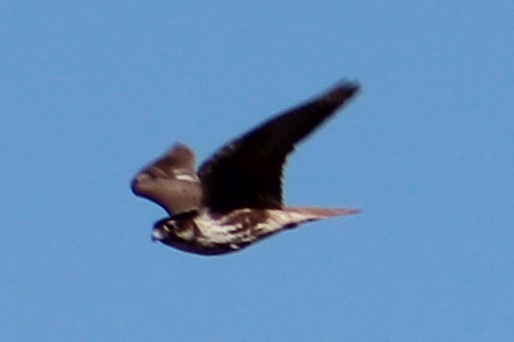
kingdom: Animalia
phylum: Chordata
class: Aves
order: Falconiformes
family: Falconidae
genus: Falco
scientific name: Falco mexicanus
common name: Prairie falcon
